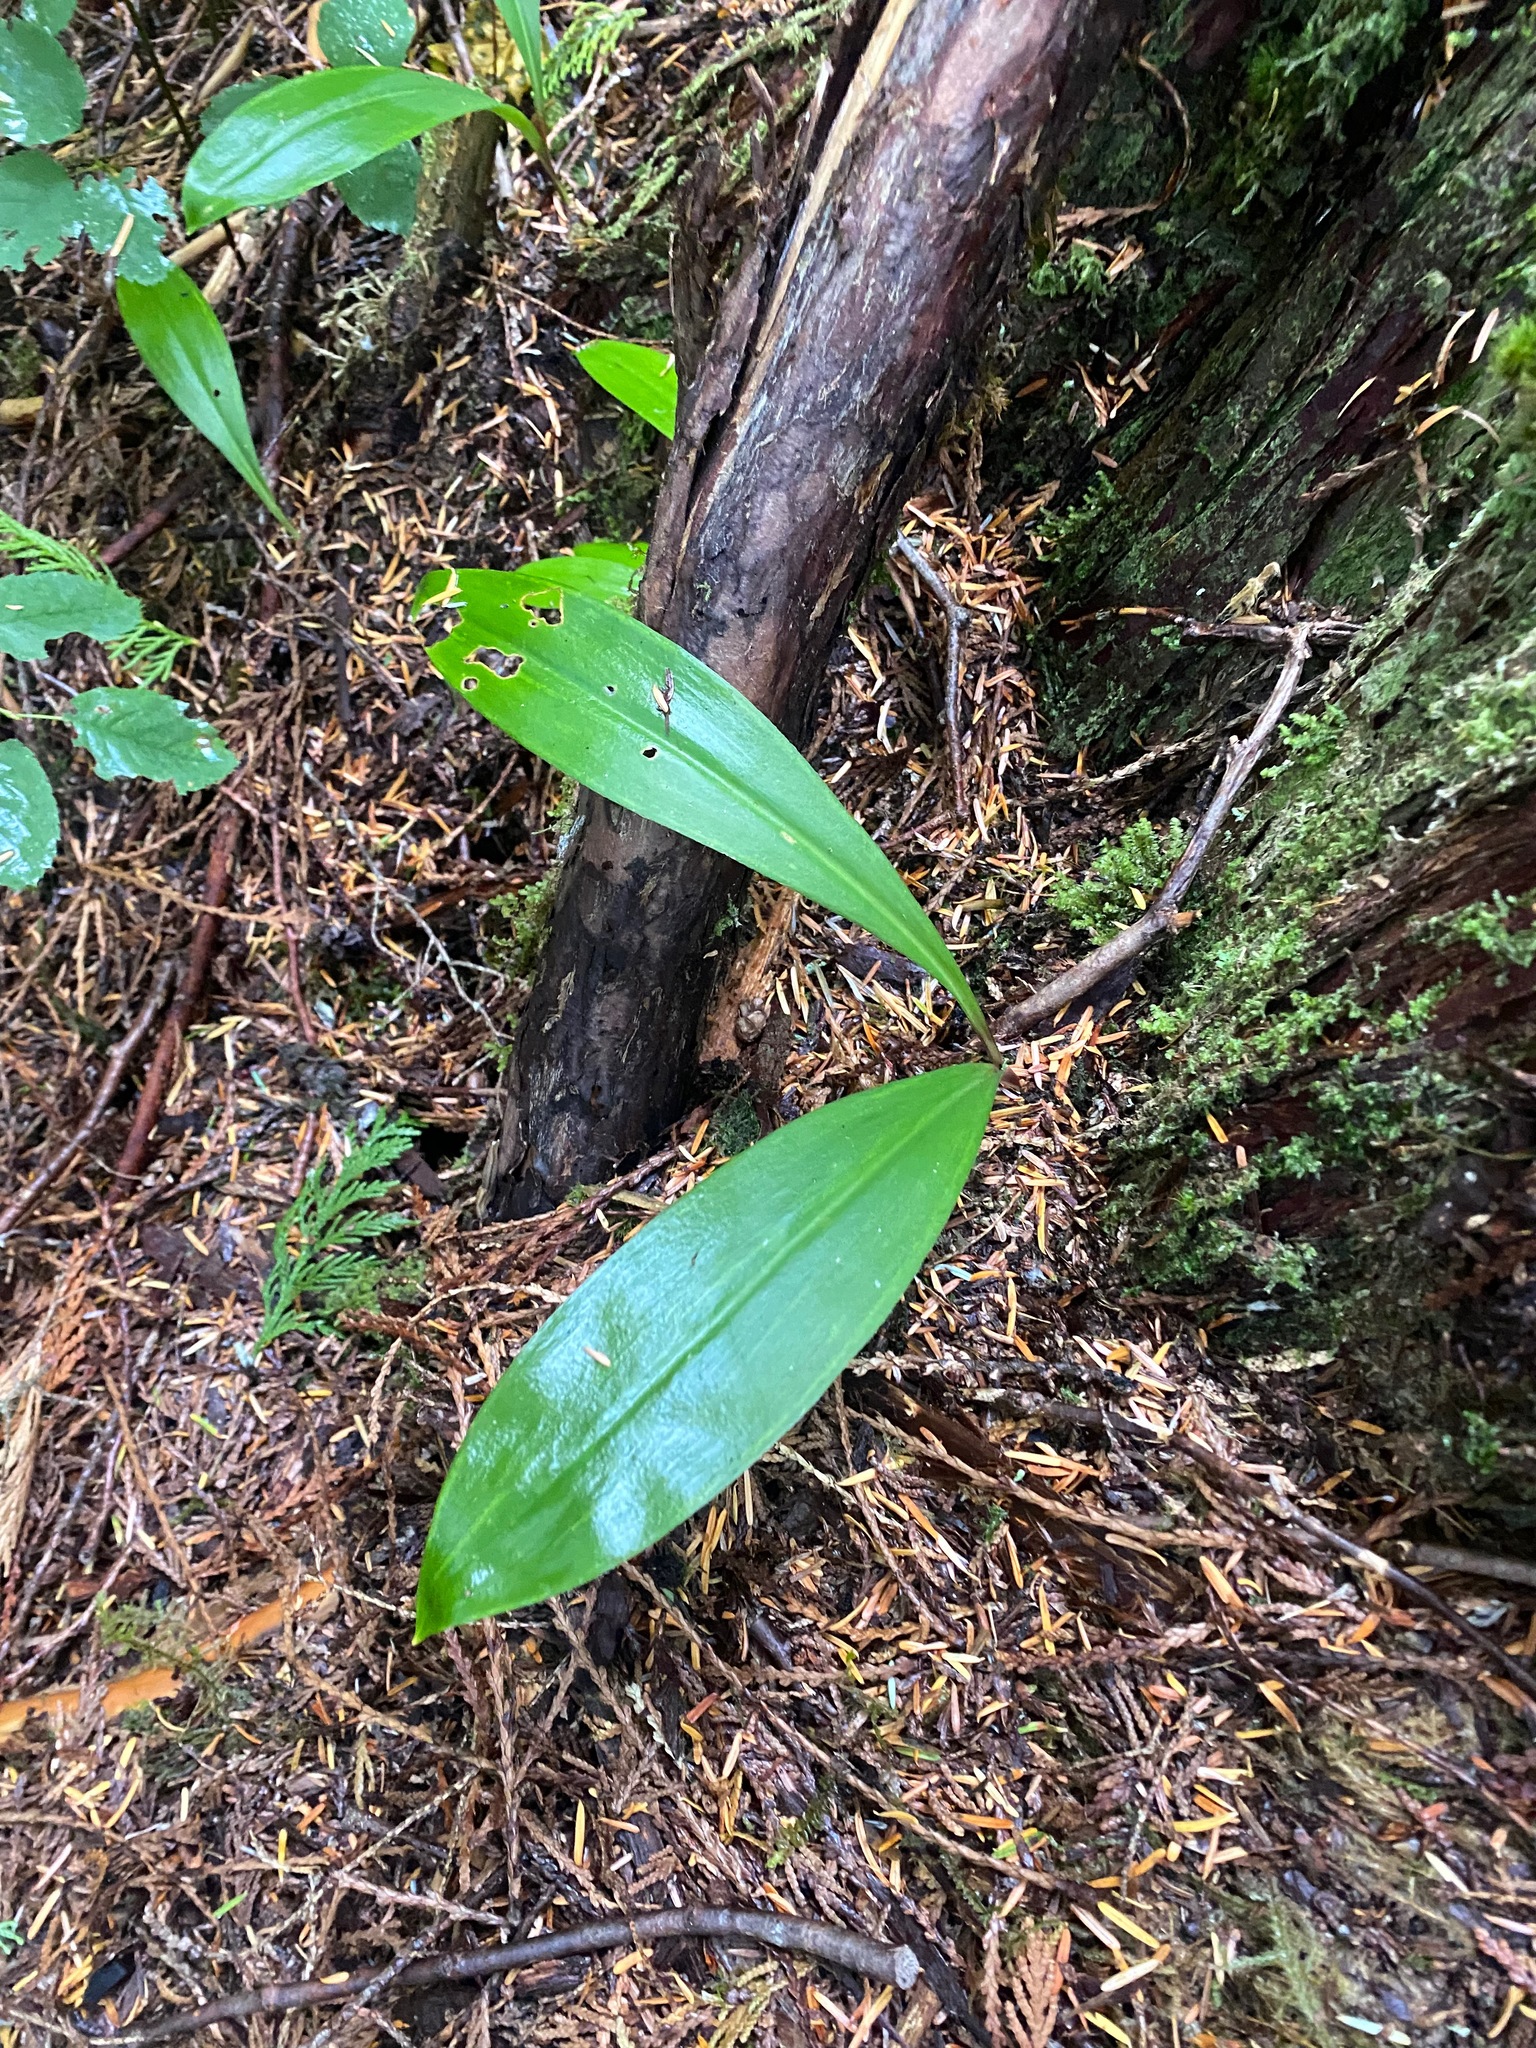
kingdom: Plantae
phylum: Tracheophyta
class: Liliopsida
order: Liliales
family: Liliaceae
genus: Clintonia
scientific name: Clintonia uniflora
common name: Queen's cup
